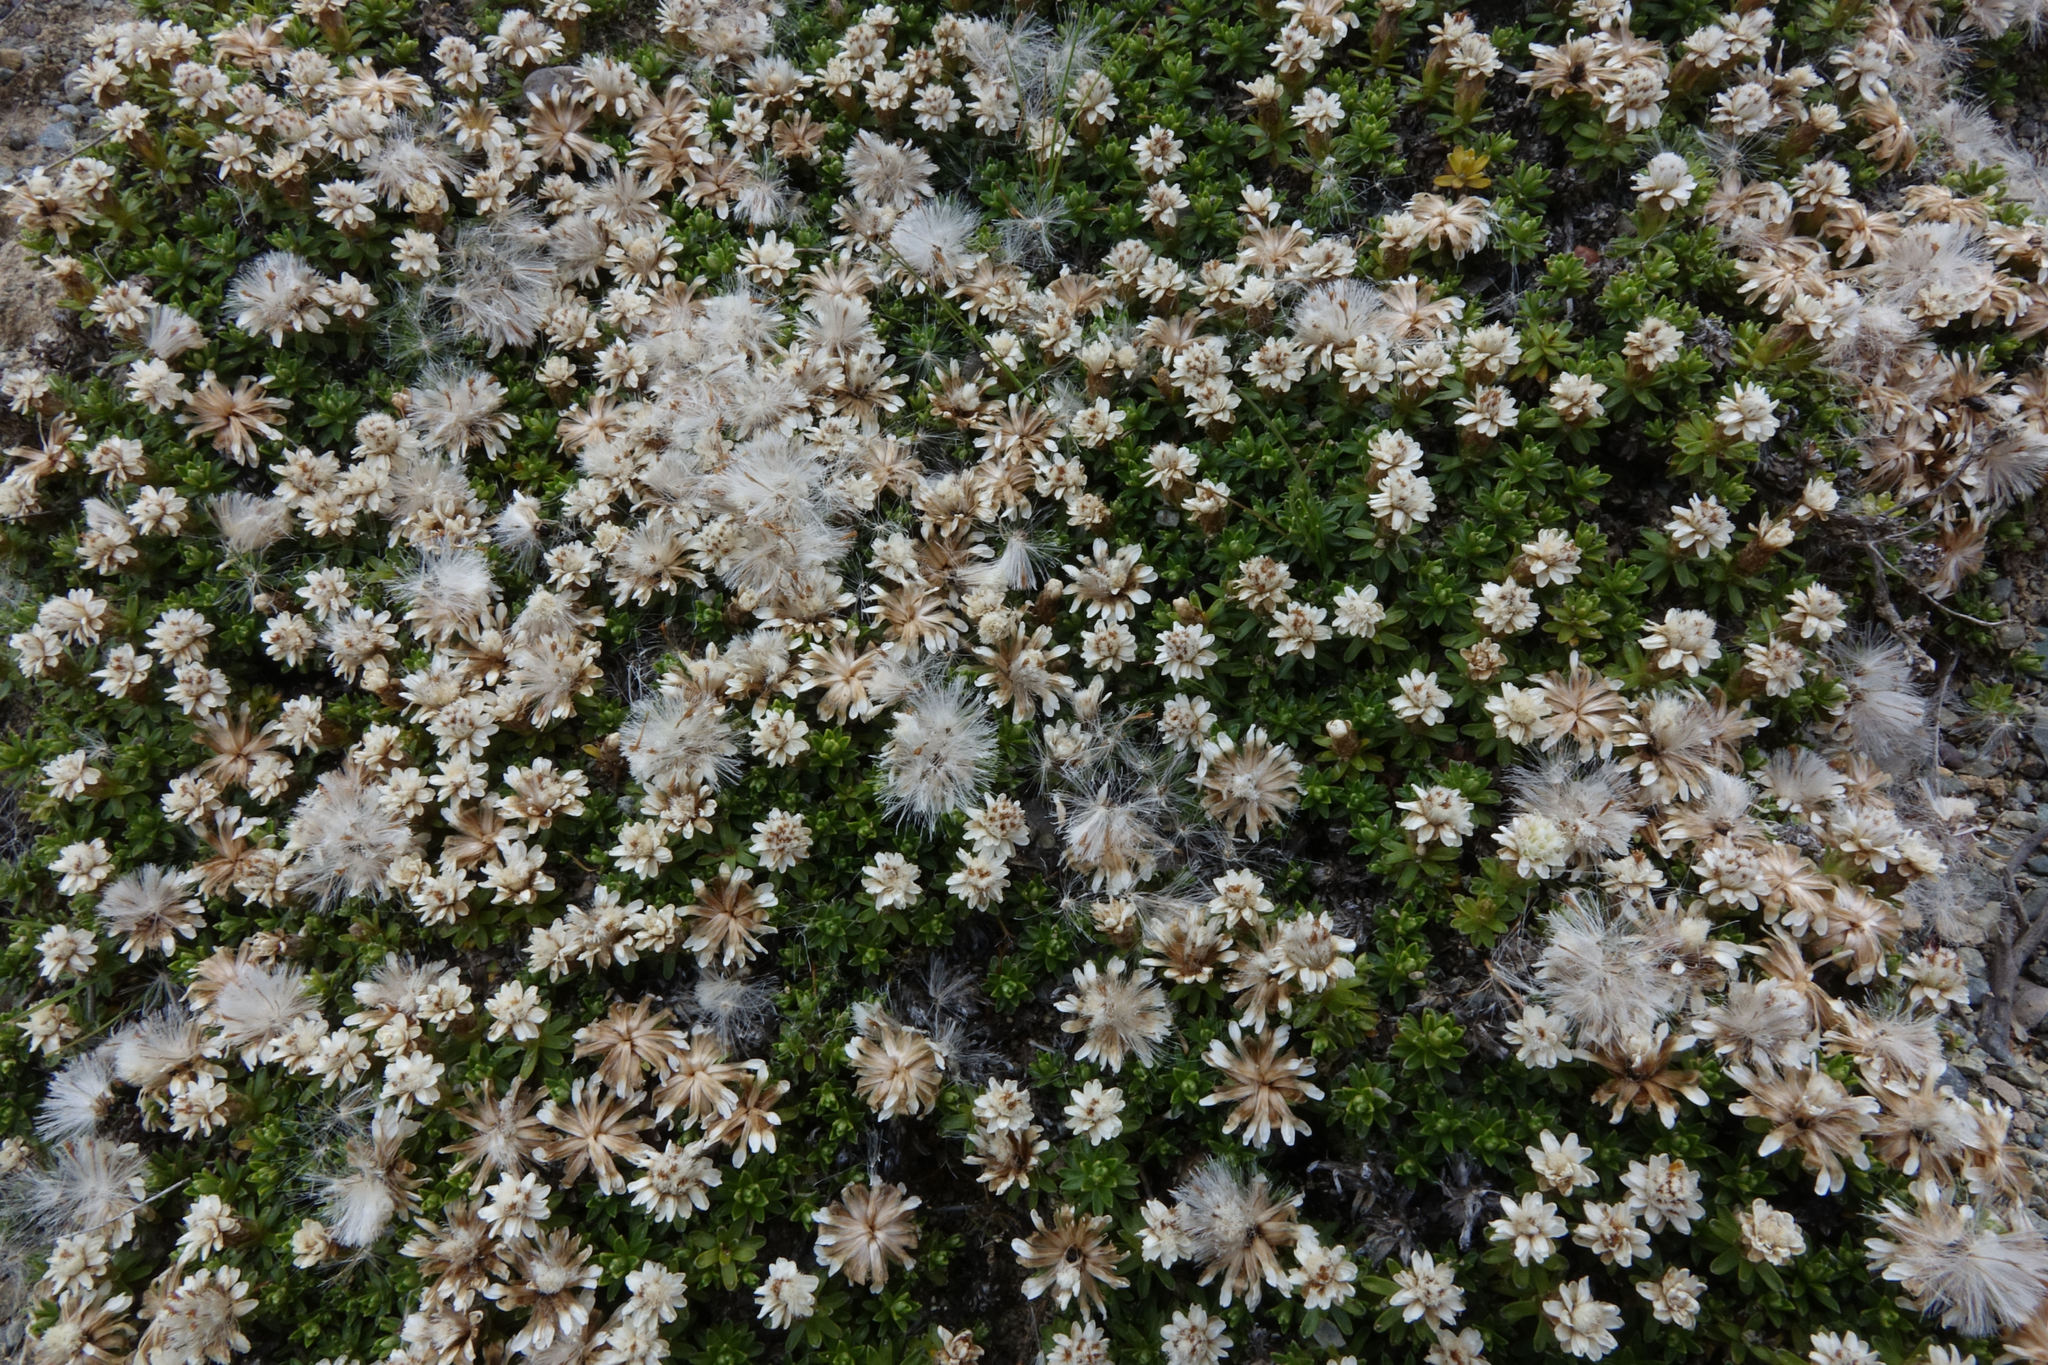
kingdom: Plantae
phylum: Tracheophyta
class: Magnoliopsida
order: Asterales
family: Asteraceae
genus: Raoulia
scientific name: Raoulia subsericea
